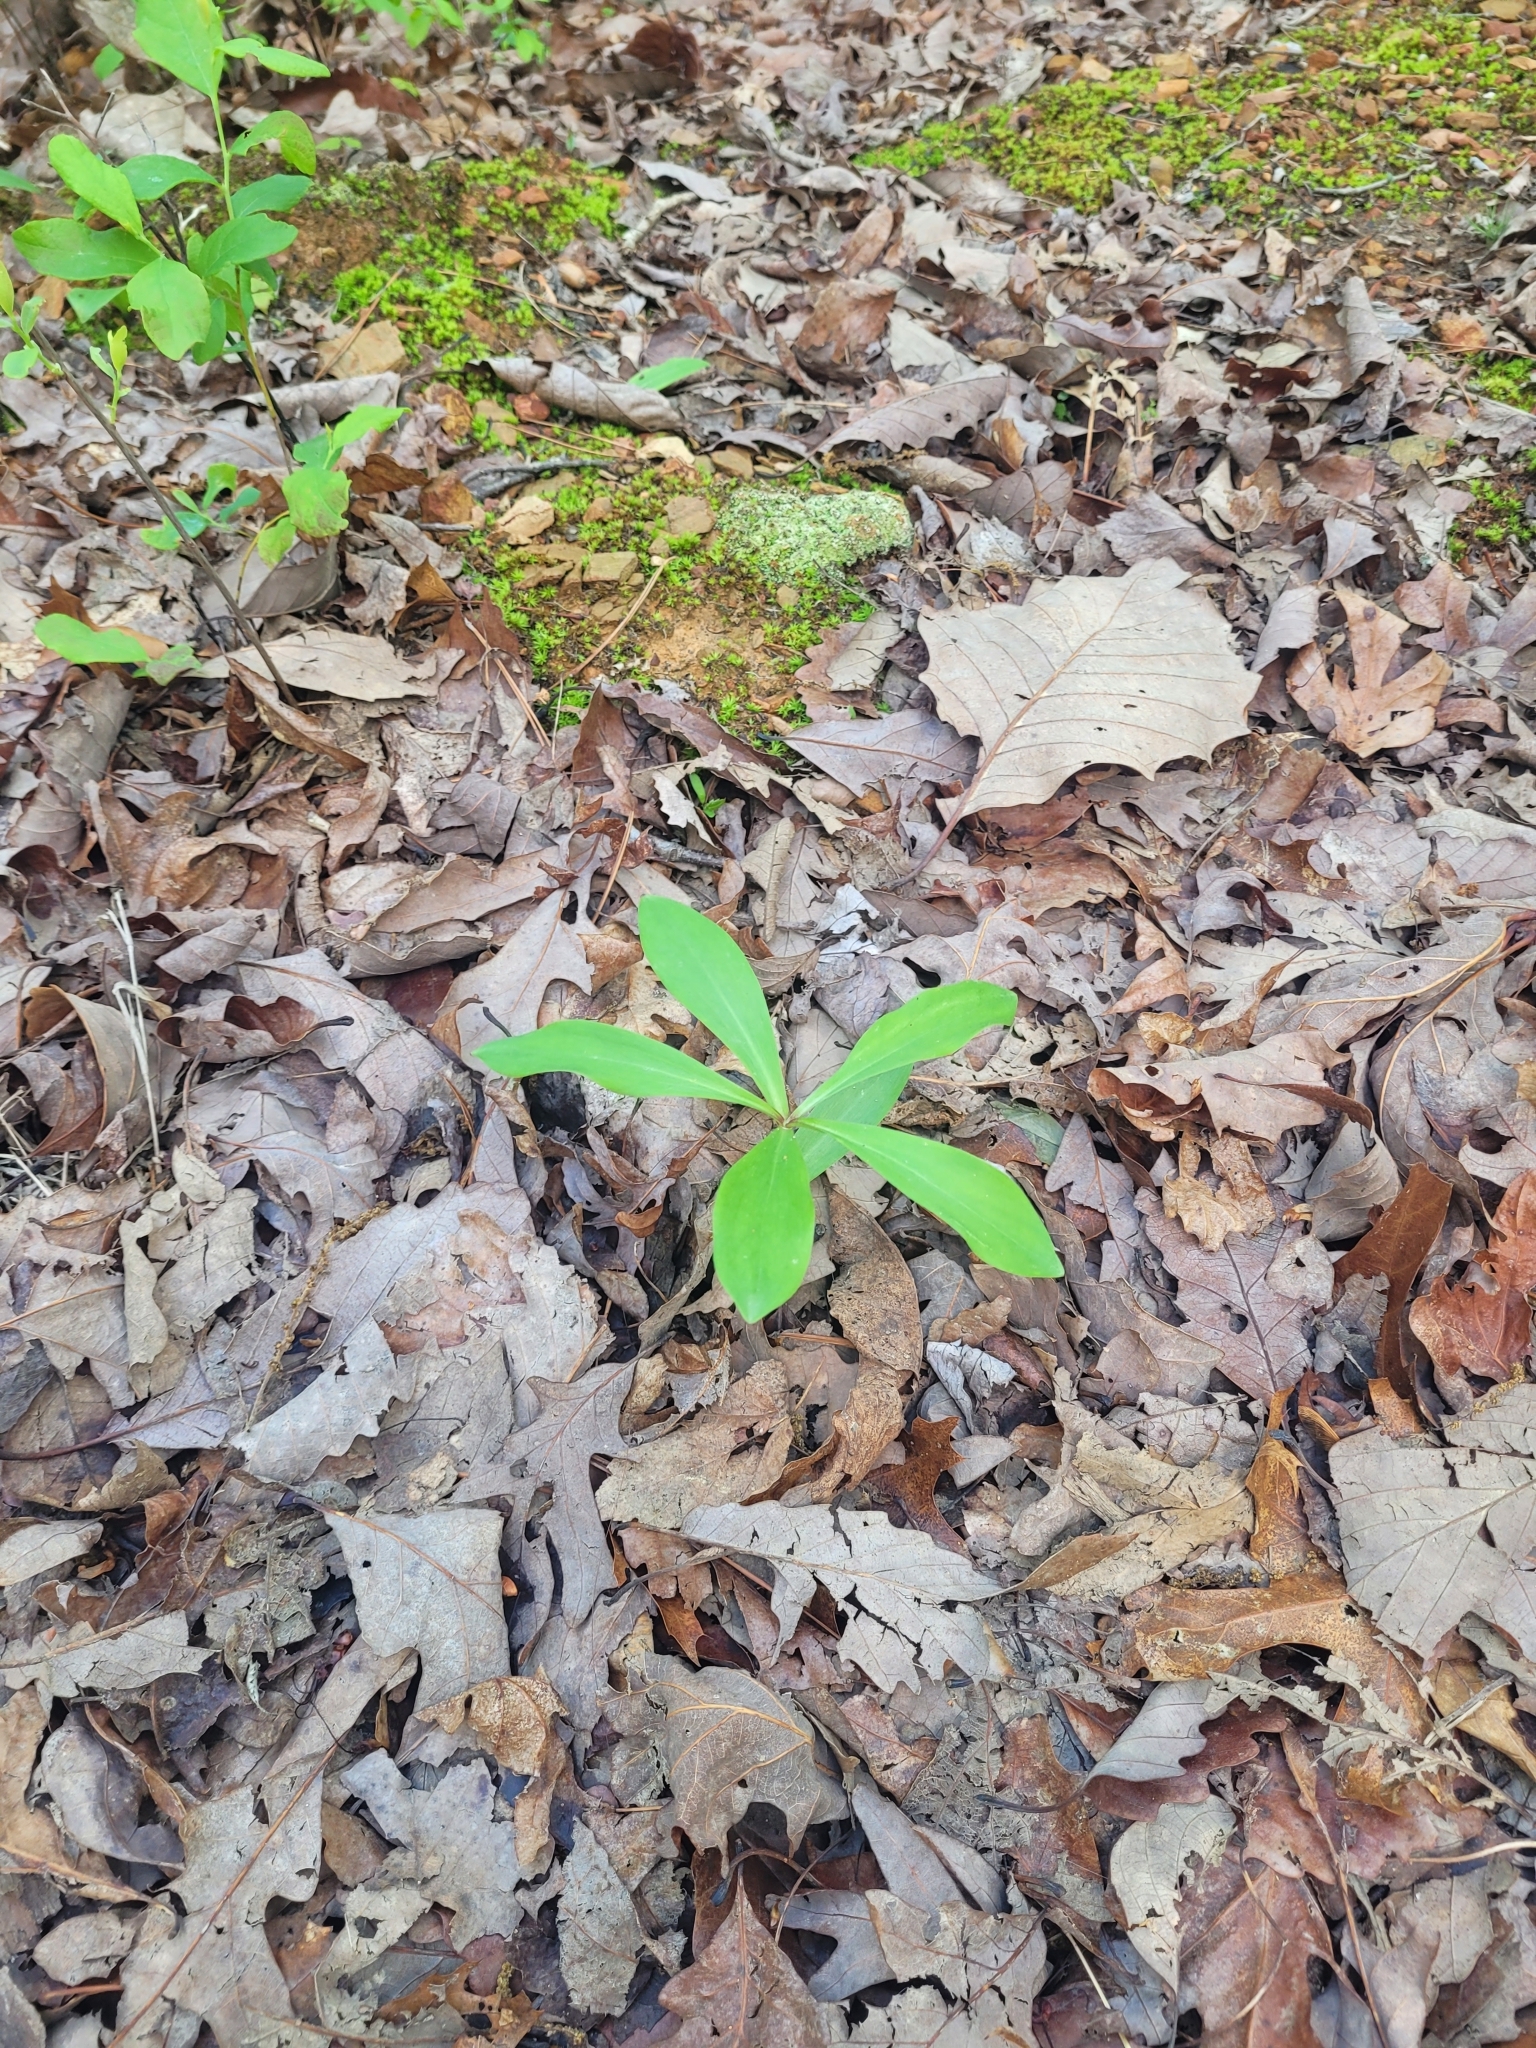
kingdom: Plantae
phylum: Tracheophyta
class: Liliopsida
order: Liliales
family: Liliaceae
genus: Lilium
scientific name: Lilium michauxii
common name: Carolina lily
